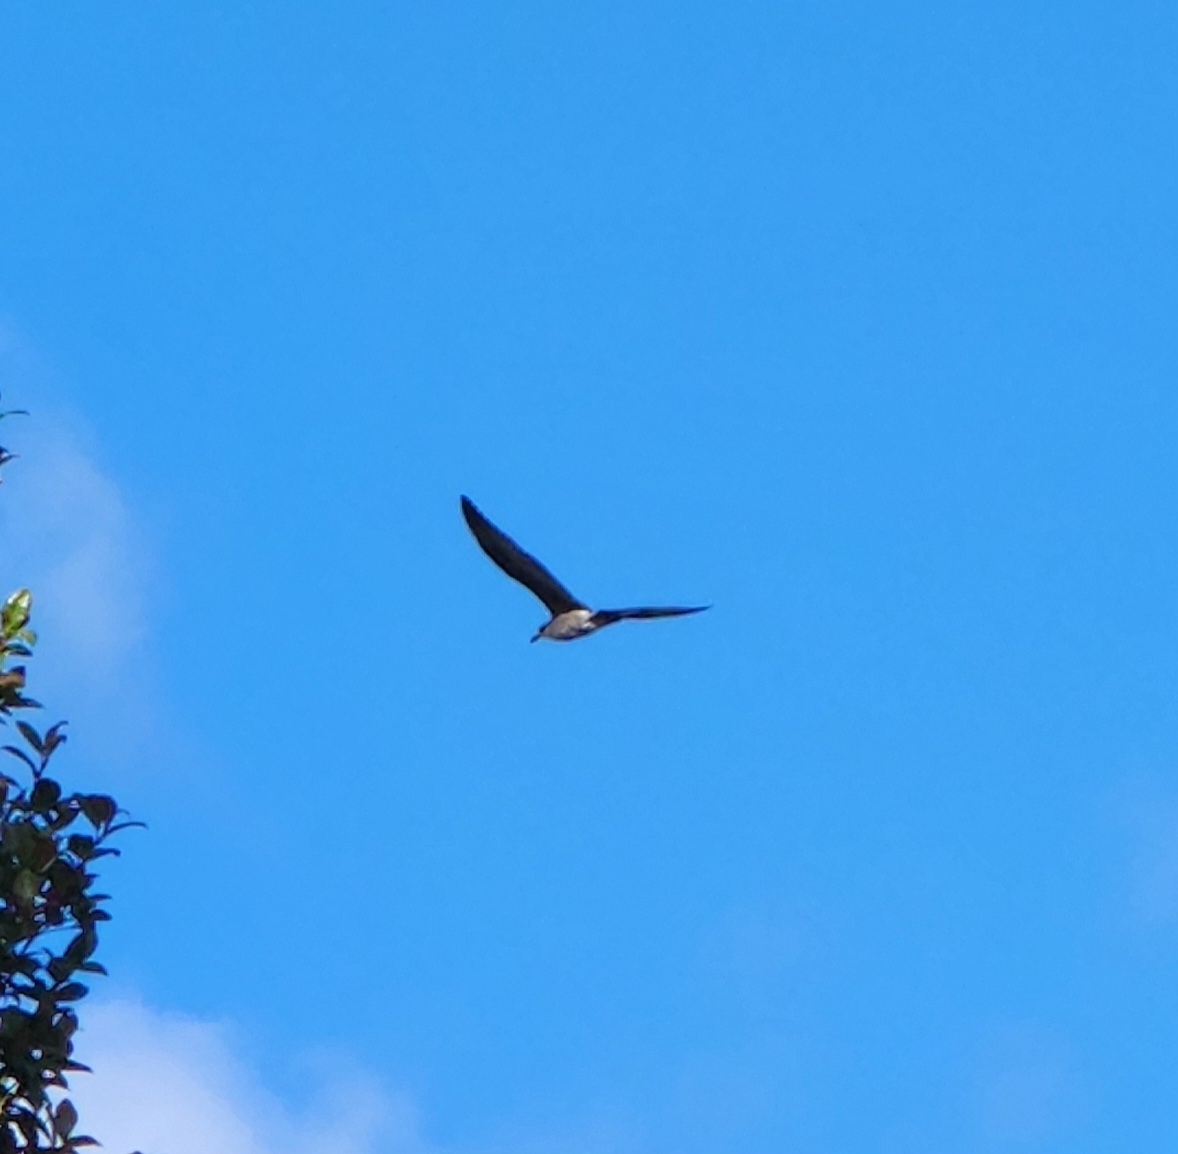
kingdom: Animalia
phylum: Chordata
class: Aves
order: Charadriiformes
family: Laridae
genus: Larus
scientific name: Larus dominicanus
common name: Kelp gull
